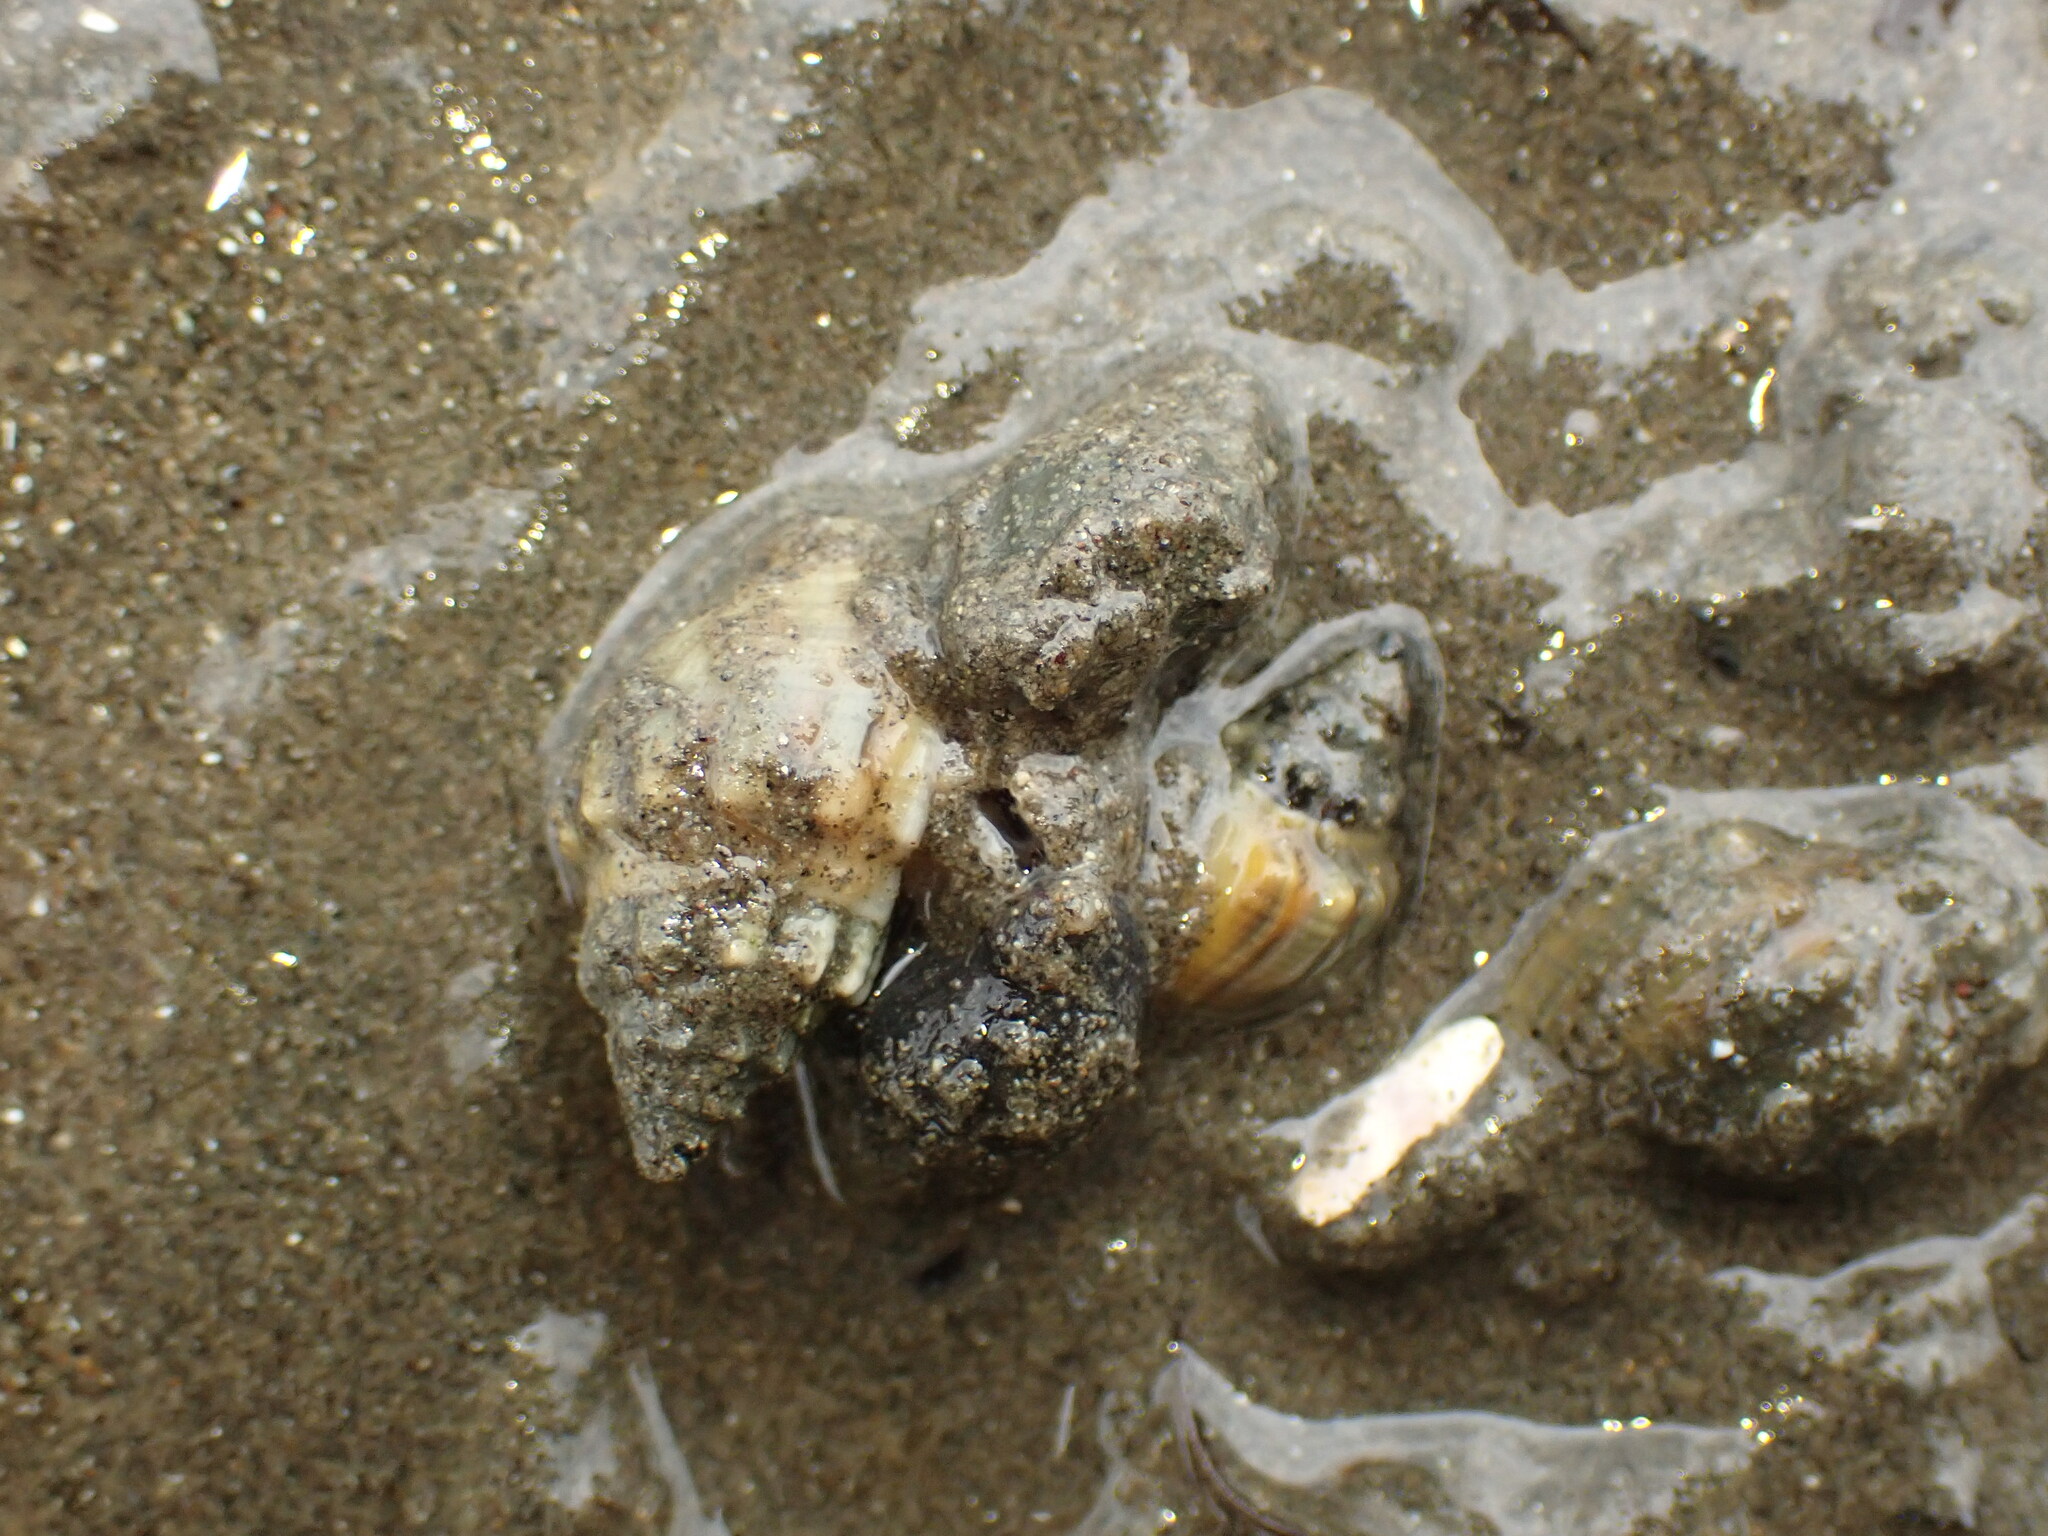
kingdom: Animalia
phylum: Mollusca
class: Gastropoda
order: Neogastropoda
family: Cominellidae
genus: Cominella
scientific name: Cominella glandiformis
